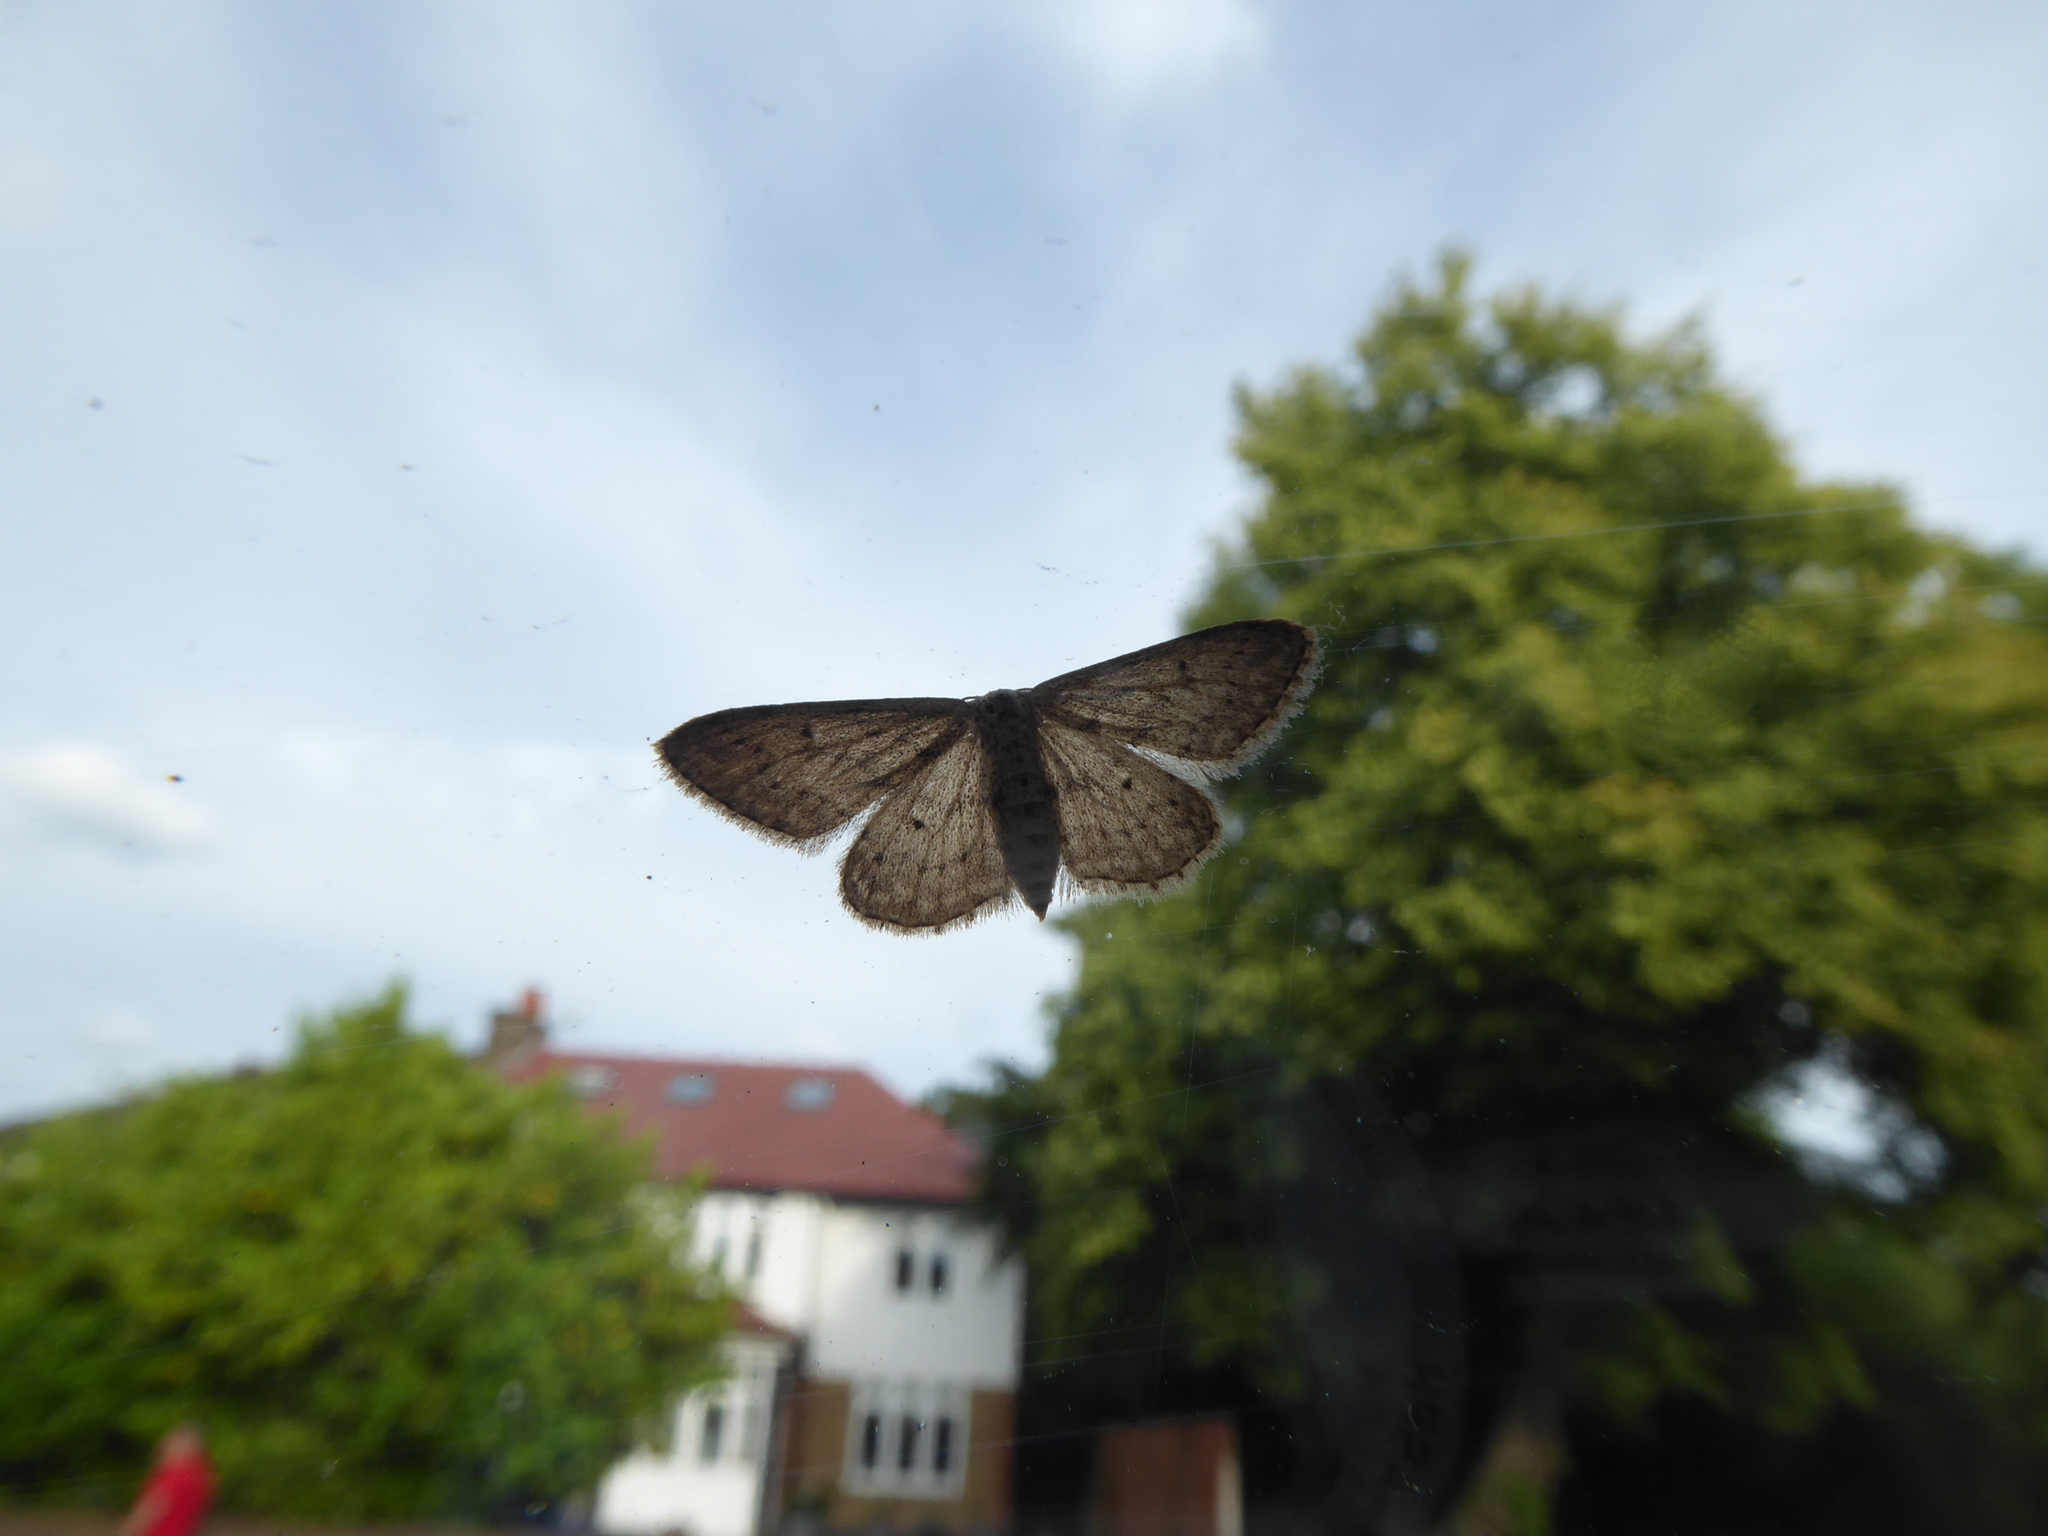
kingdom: Animalia
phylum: Arthropoda
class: Insecta
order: Lepidoptera
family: Geometridae
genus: Idaea
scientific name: Idaea seriata
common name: Small dusty wave
